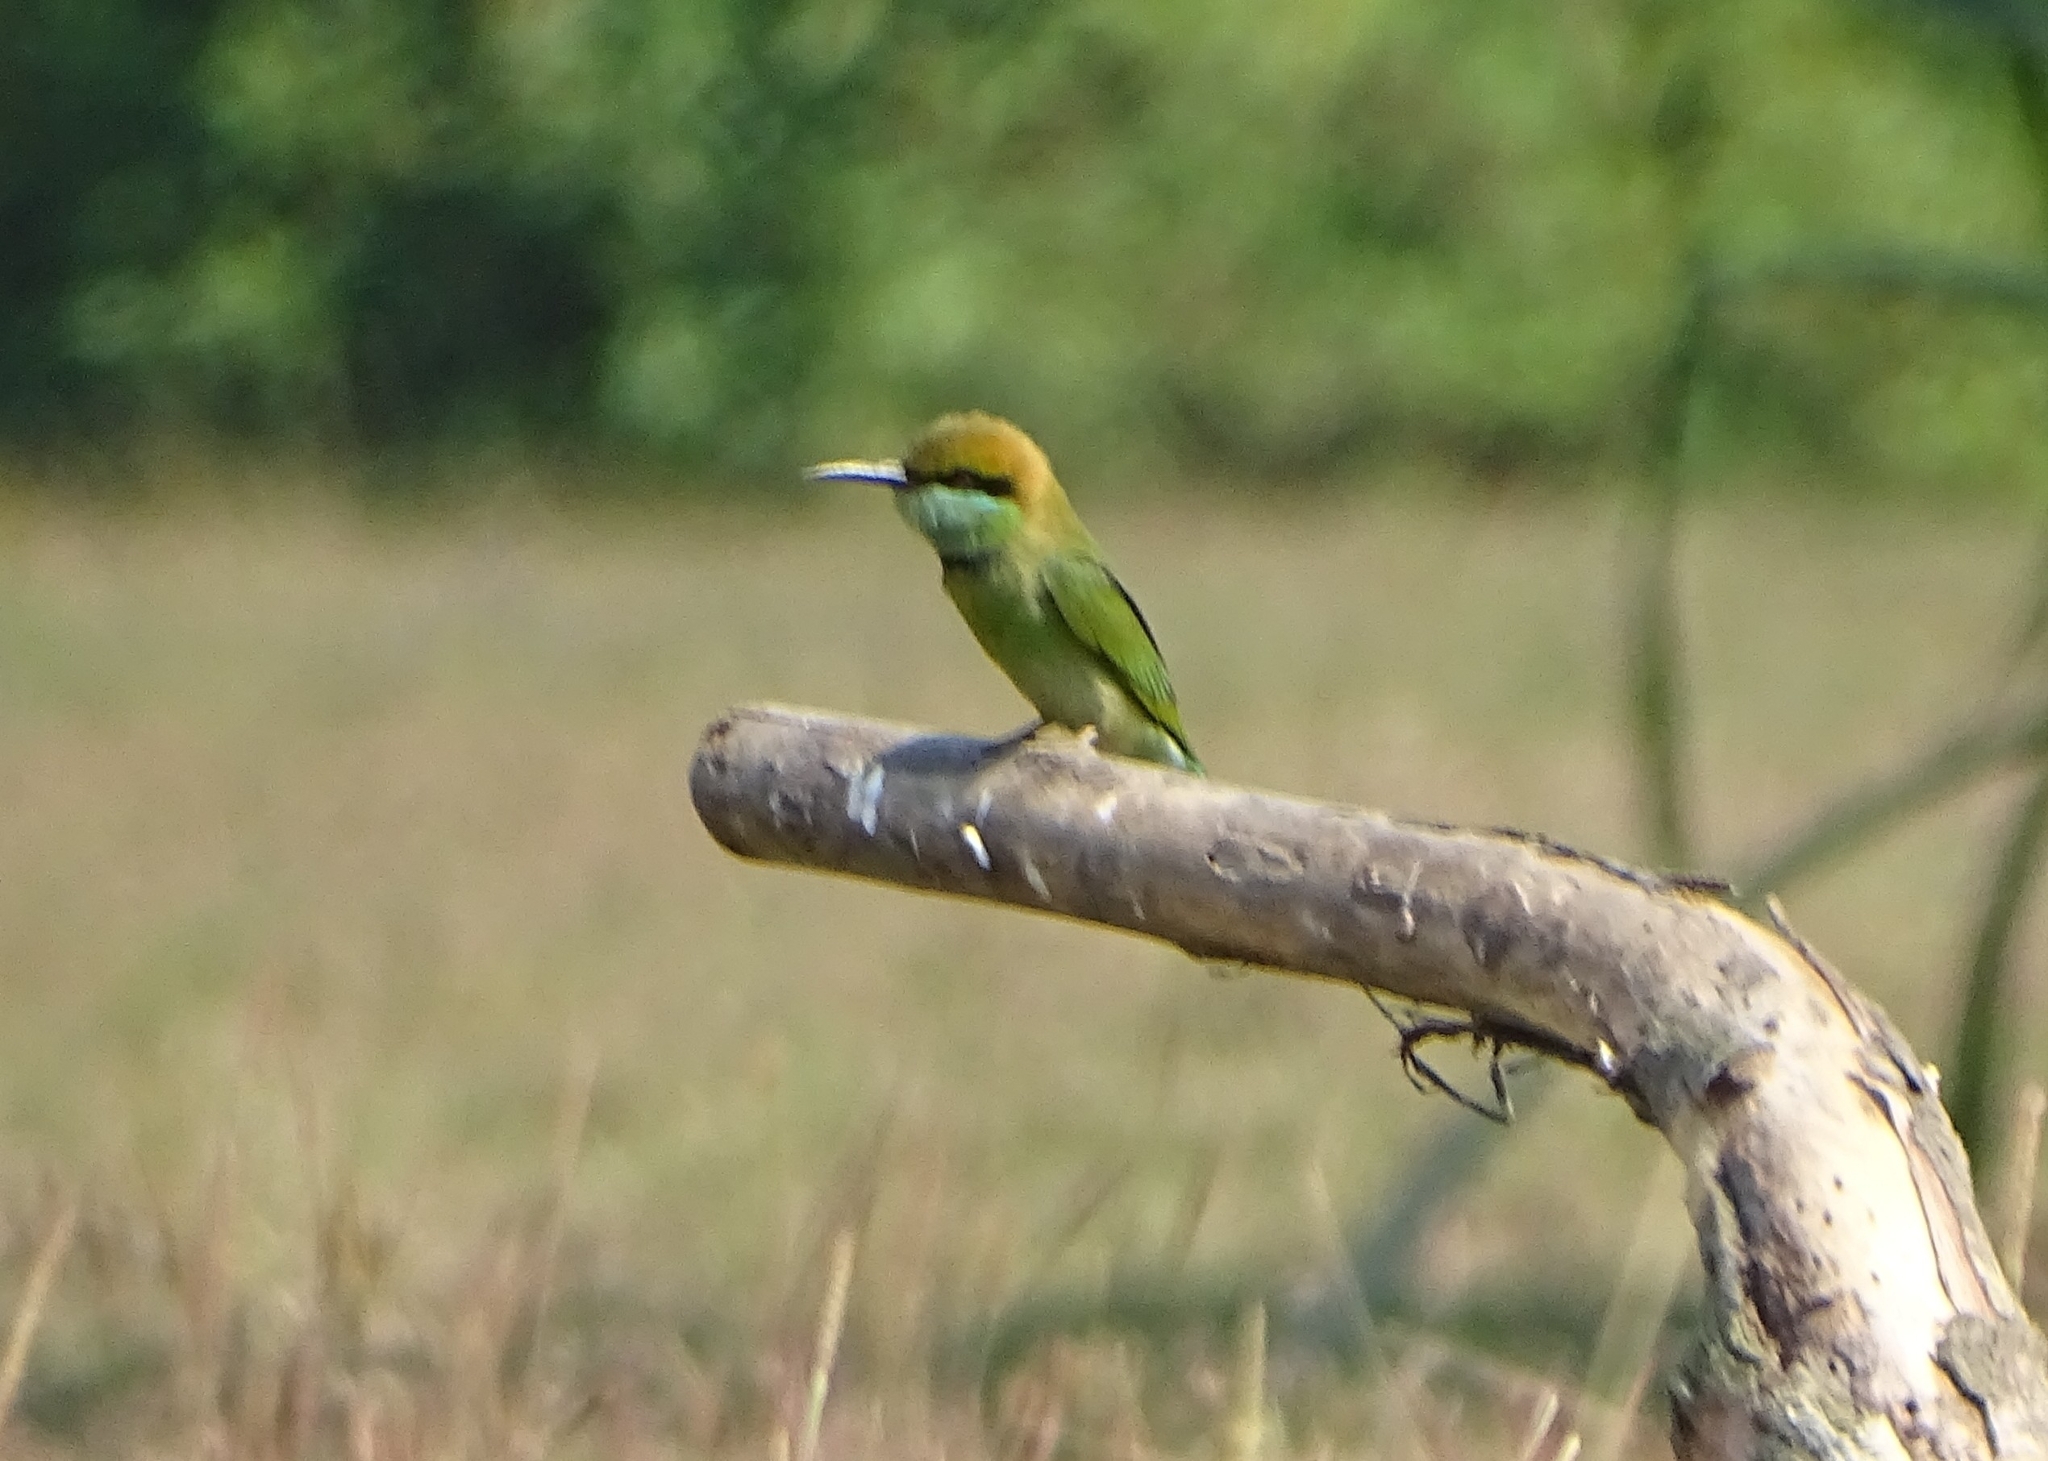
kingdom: Animalia
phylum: Chordata
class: Aves
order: Coraciiformes
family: Meropidae
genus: Merops
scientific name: Merops orientalis
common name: Green bee-eater
